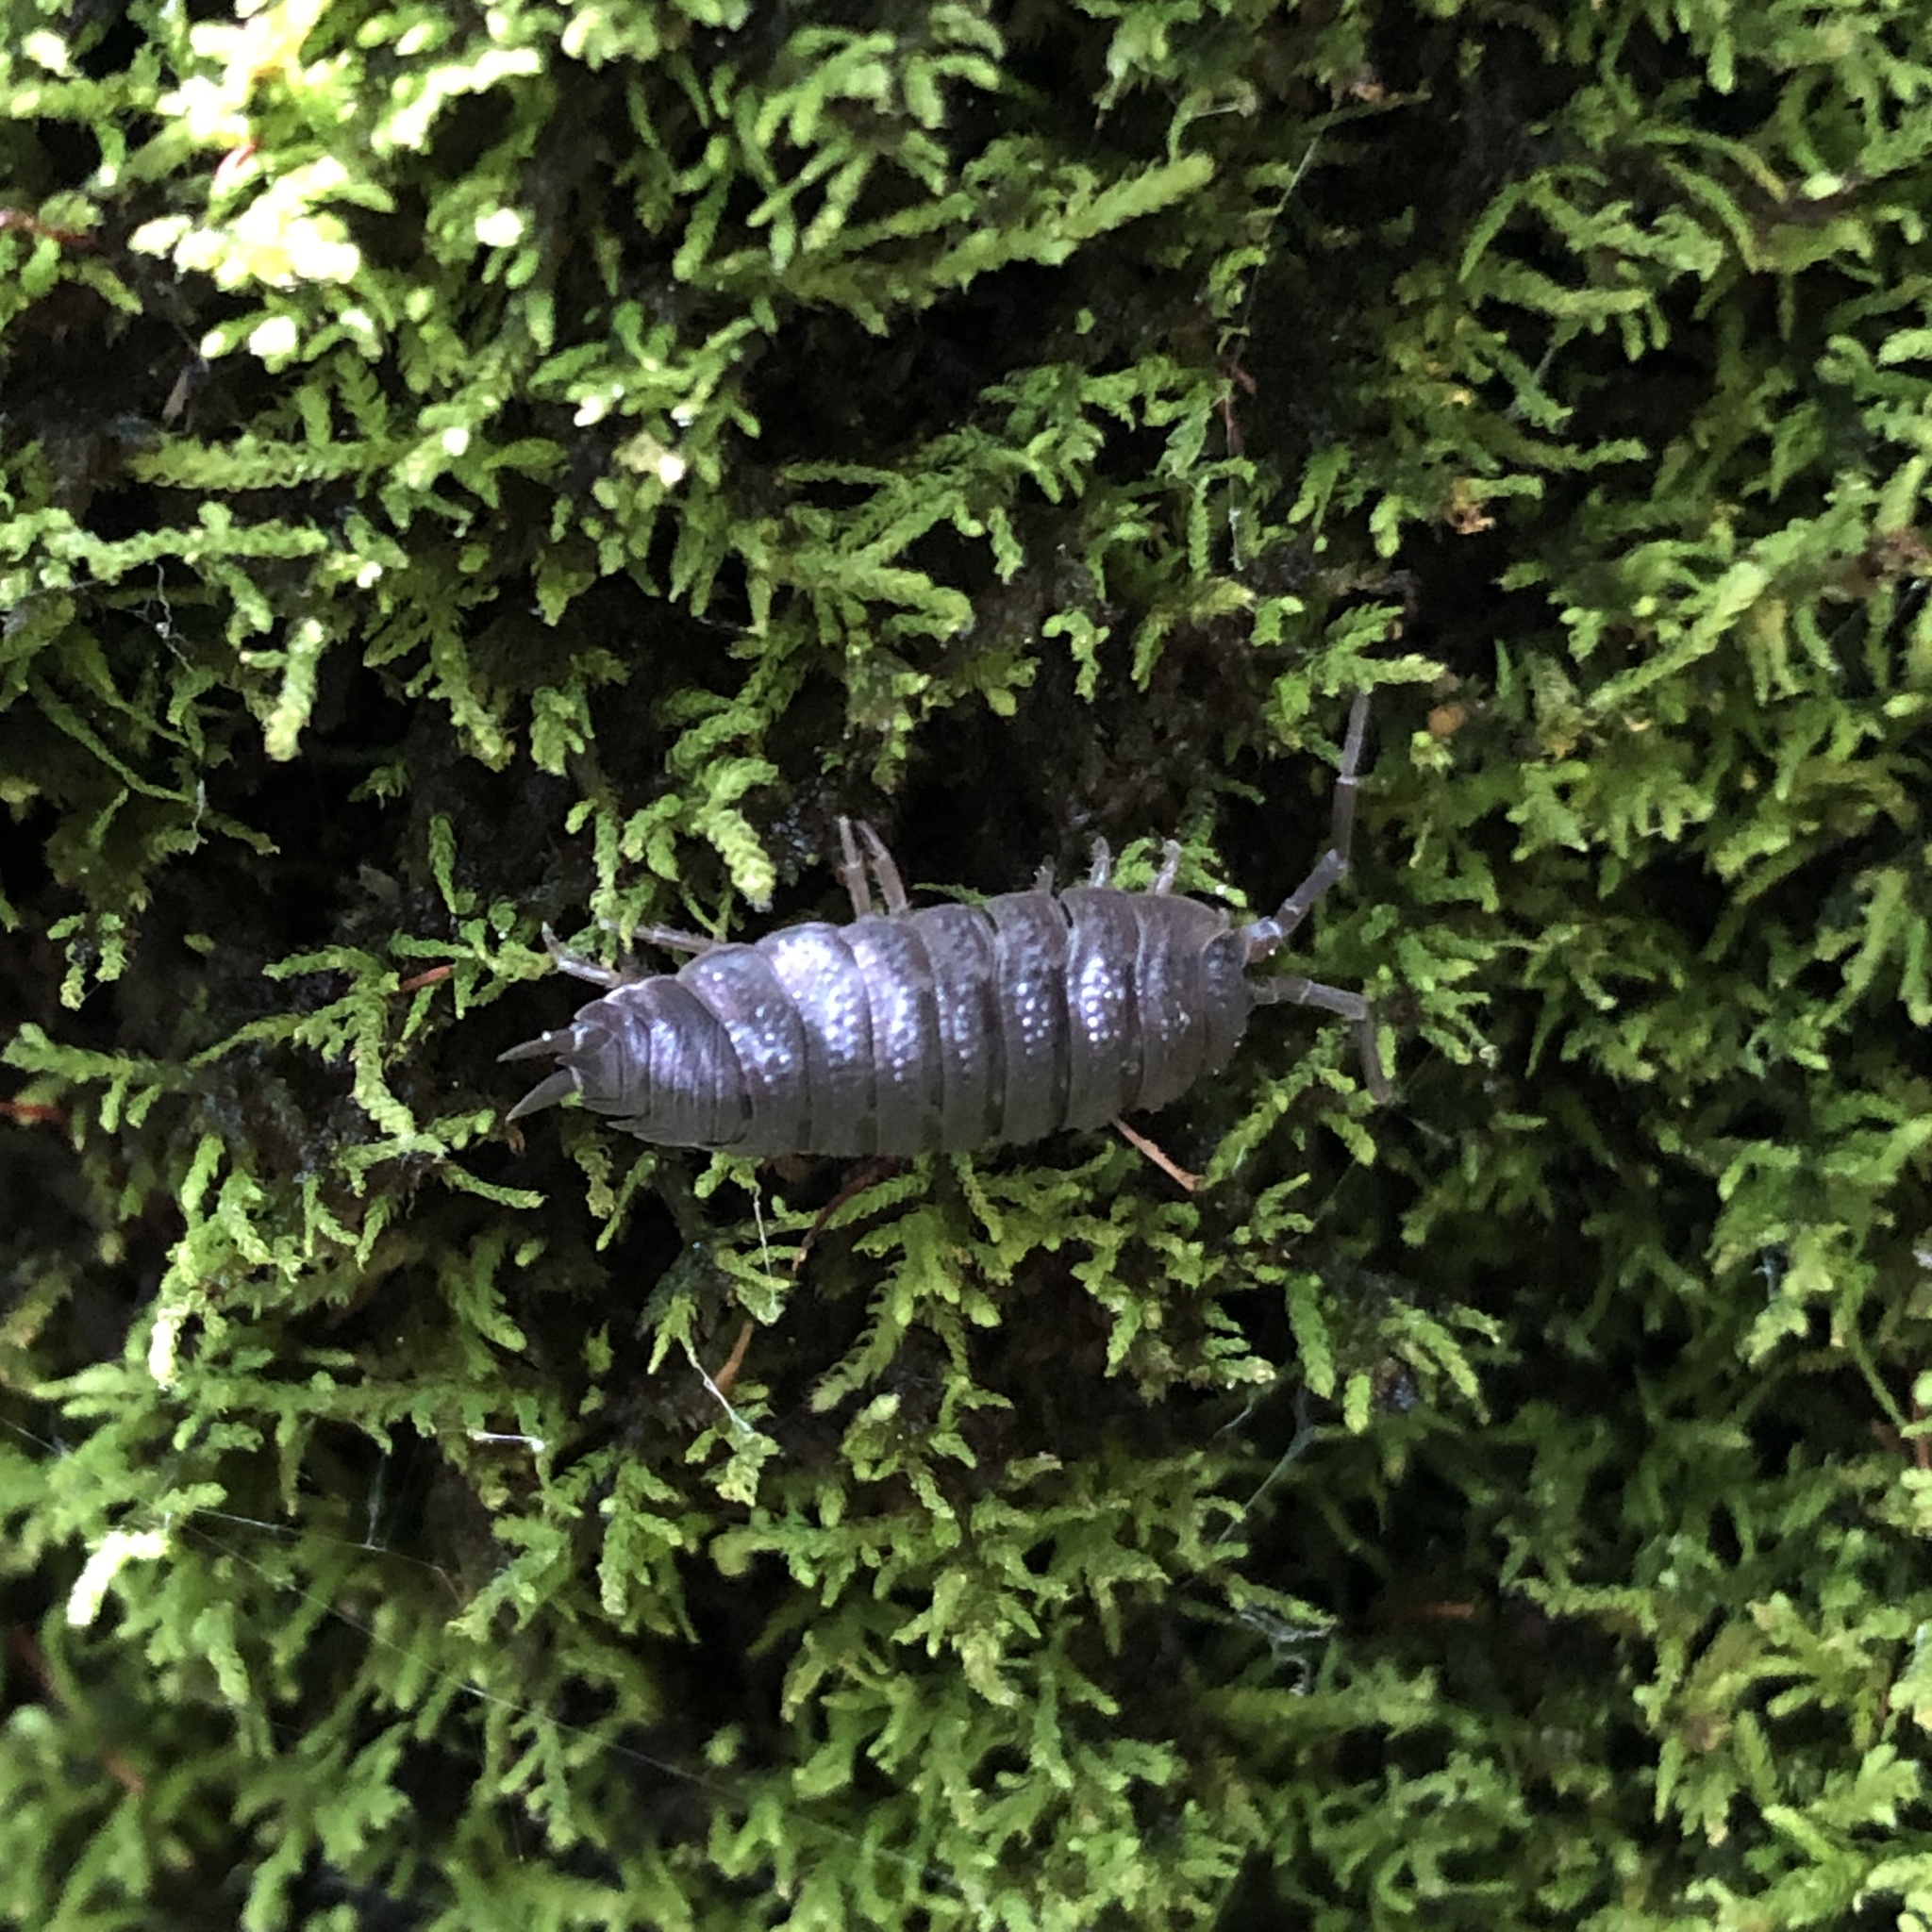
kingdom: Animalia
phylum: Arthropoda
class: Malacostraca
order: Isopoda
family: Porcellionidae
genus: Porcellio
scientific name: Porcellio scaber
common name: Common rough woodlouse
